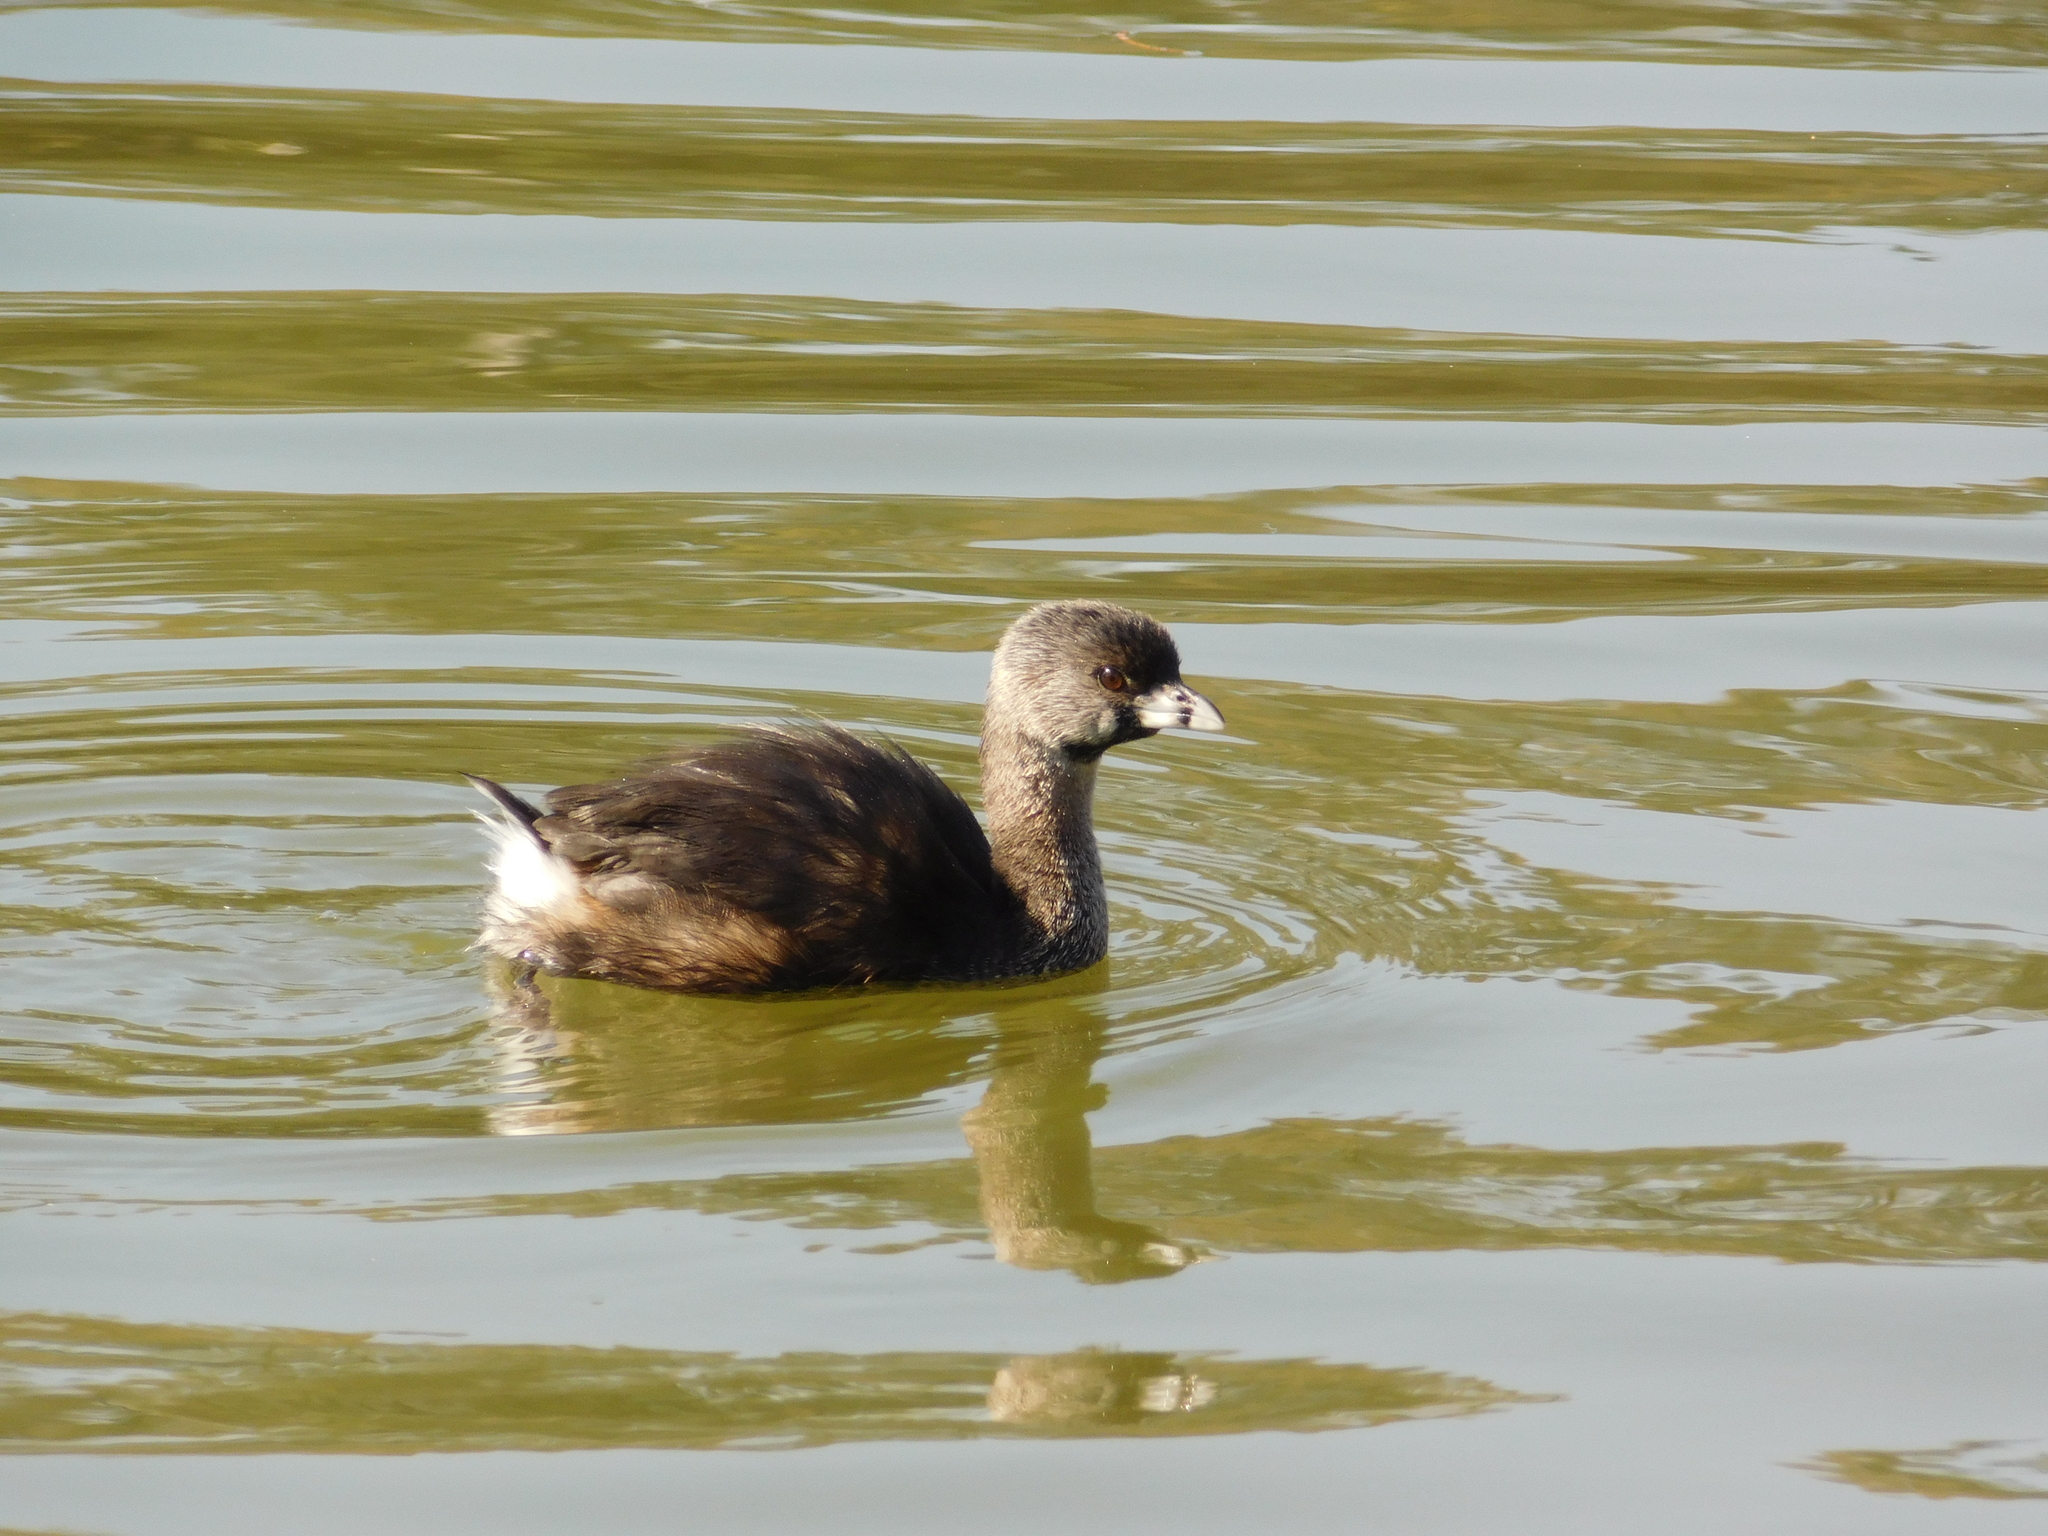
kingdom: Animalia
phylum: Chordata
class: Aves
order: Podicipediformes
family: Podicipedidae
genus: Podilymbus
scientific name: Podilymbus podiceps
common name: Pied-billed grebe
